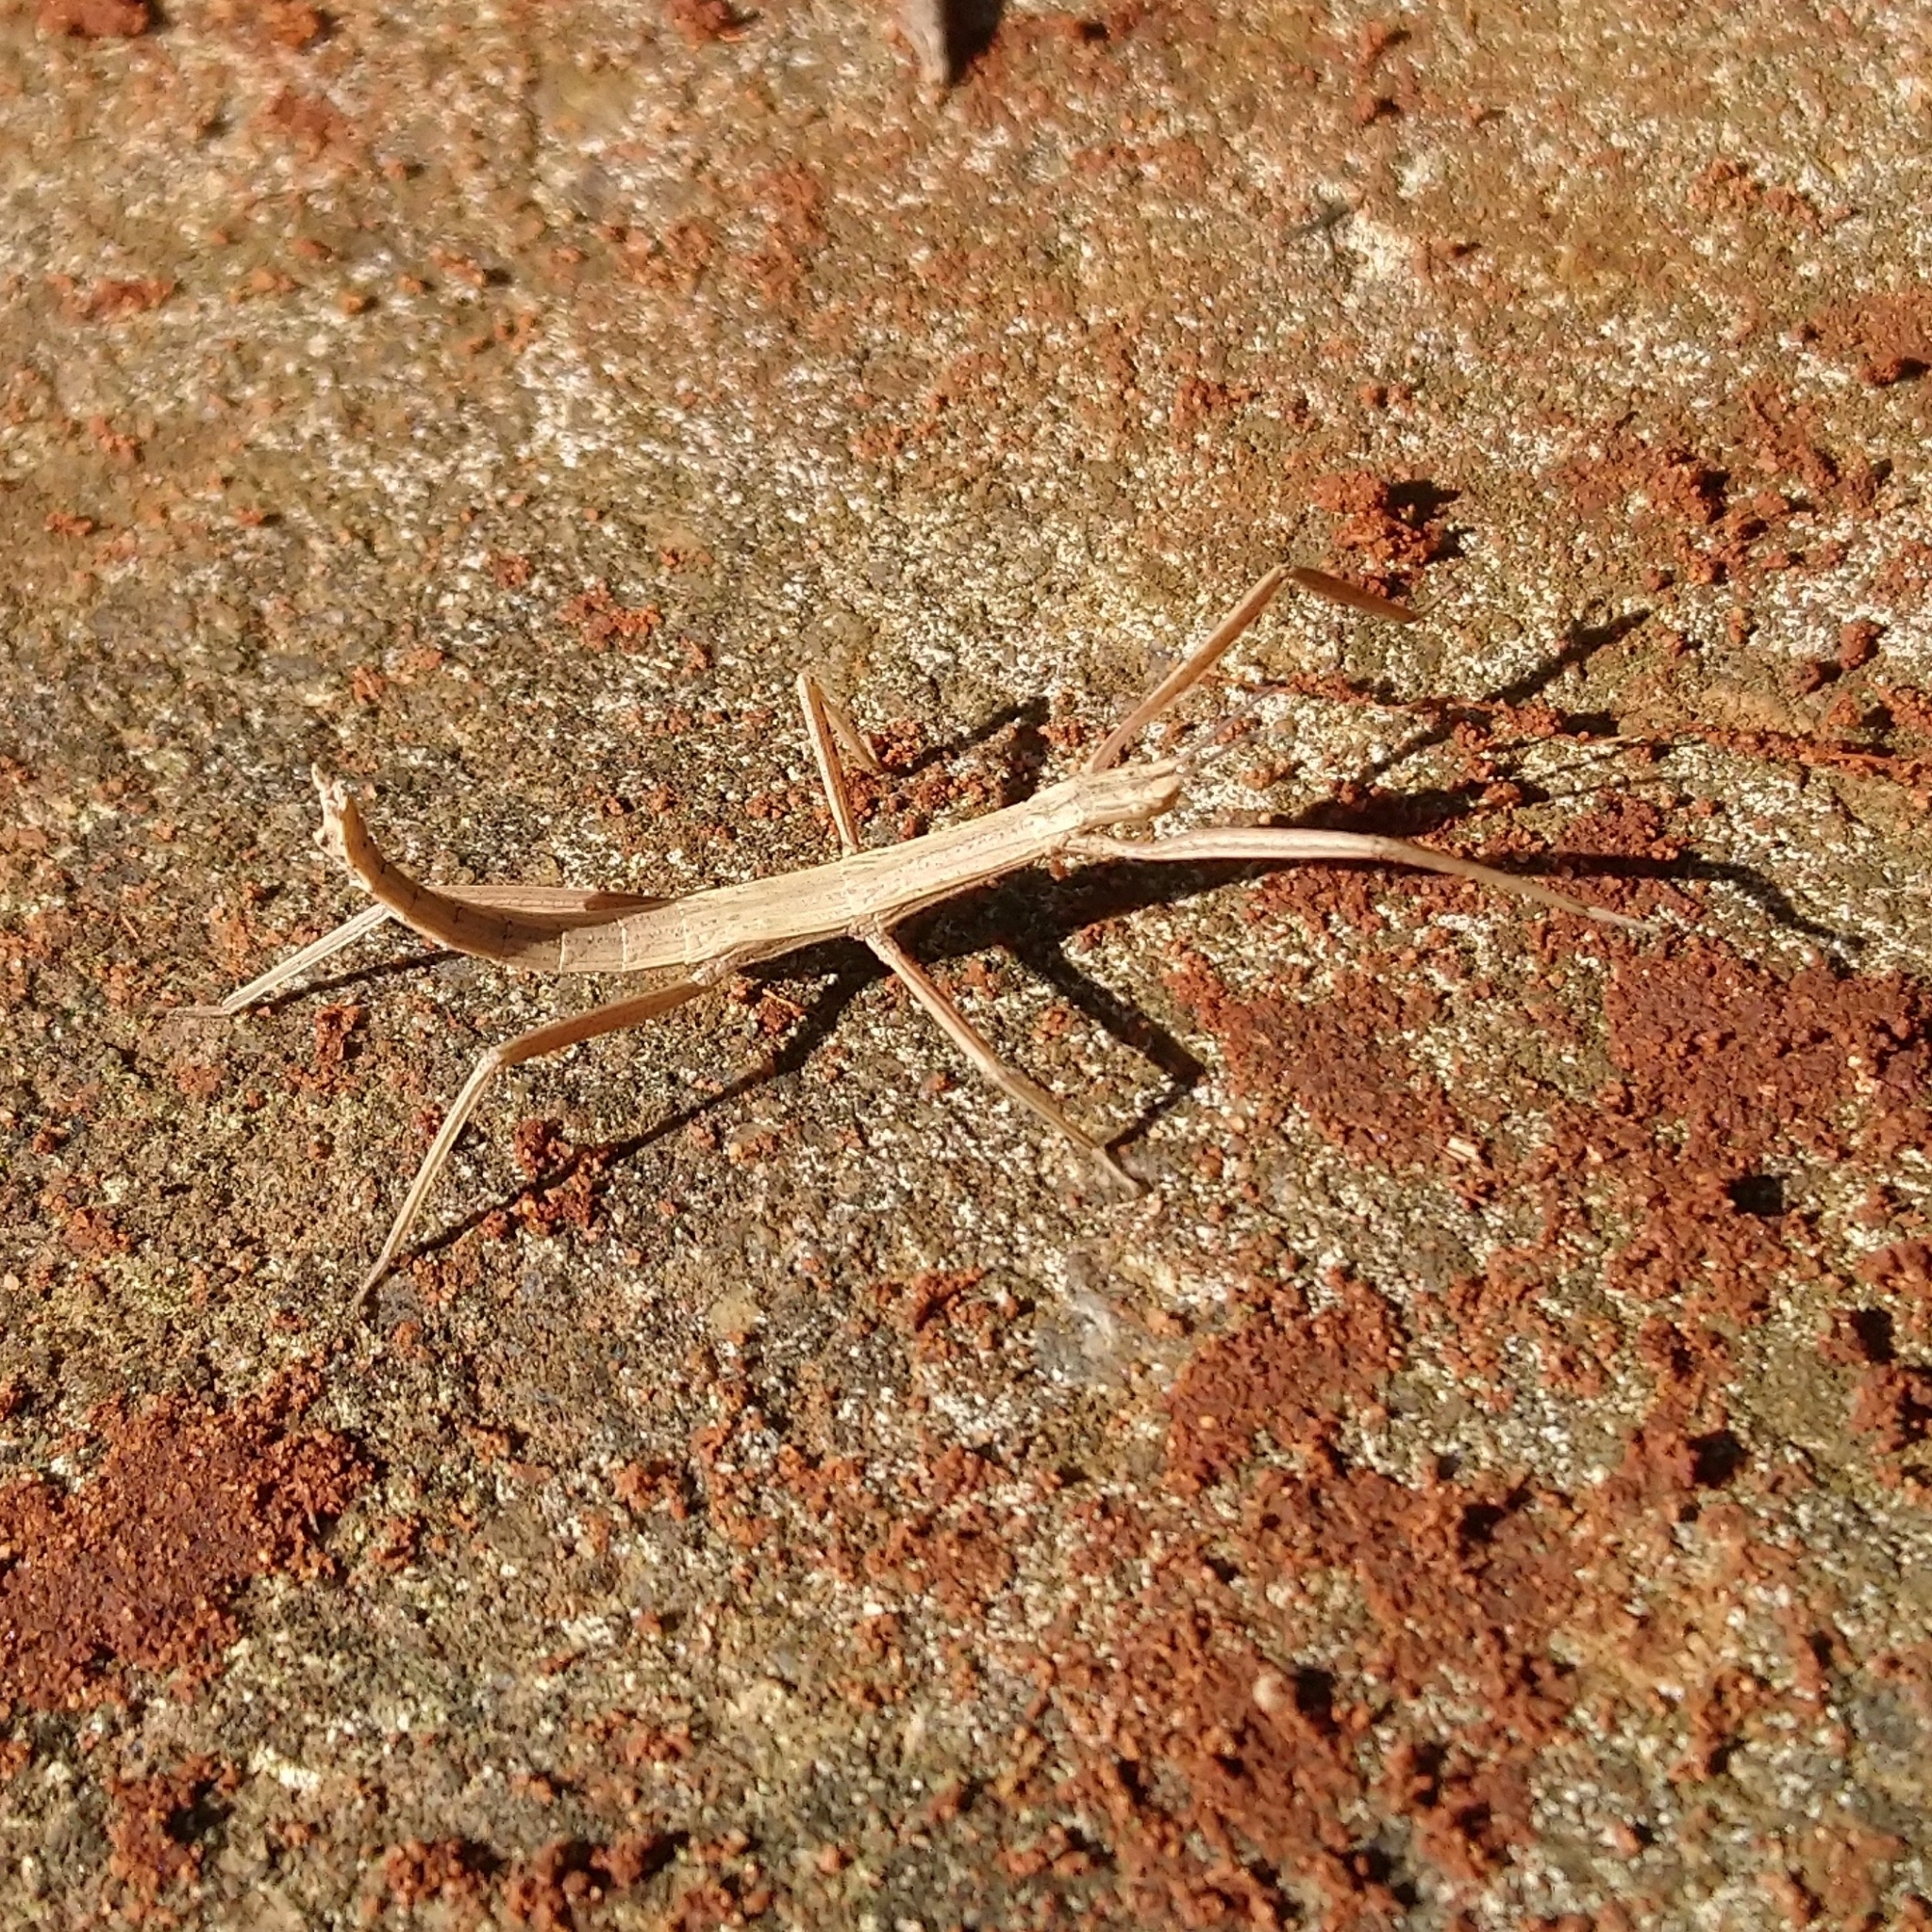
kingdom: Animalia
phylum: Arthropoda
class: Insecta
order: Phasmida
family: Phasmatidae
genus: Hemipachymorpha
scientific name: Hemipachymorpha omphale
